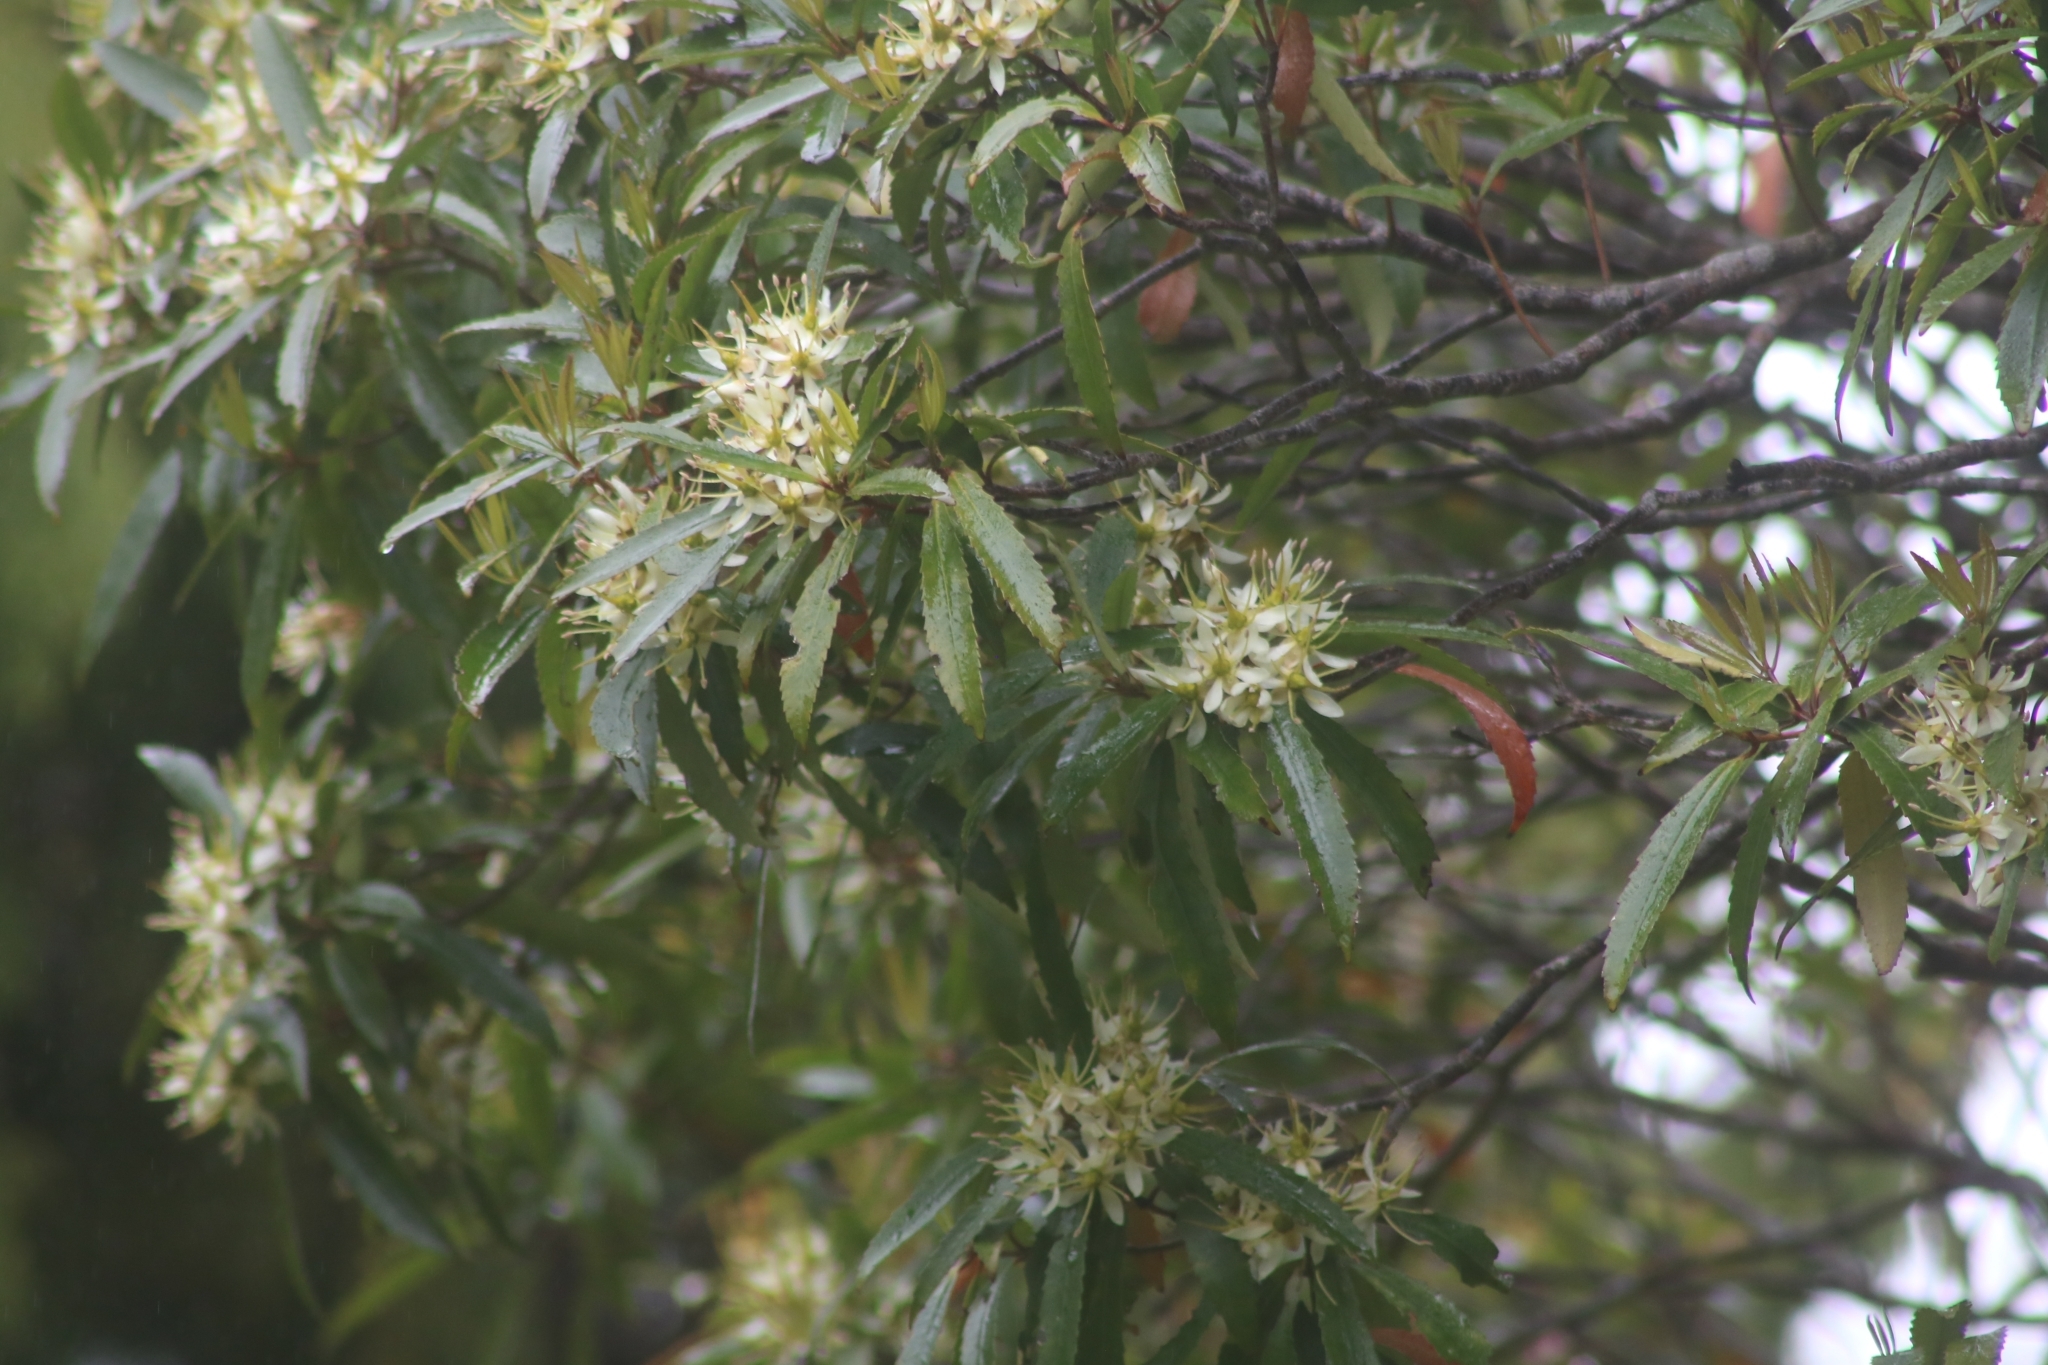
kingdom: Plantae
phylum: Tracheophyta
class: Magnoliopsida
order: Crossosomatales
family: Ixerbaceae
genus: Ixerba
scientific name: Ixerba brexioides
